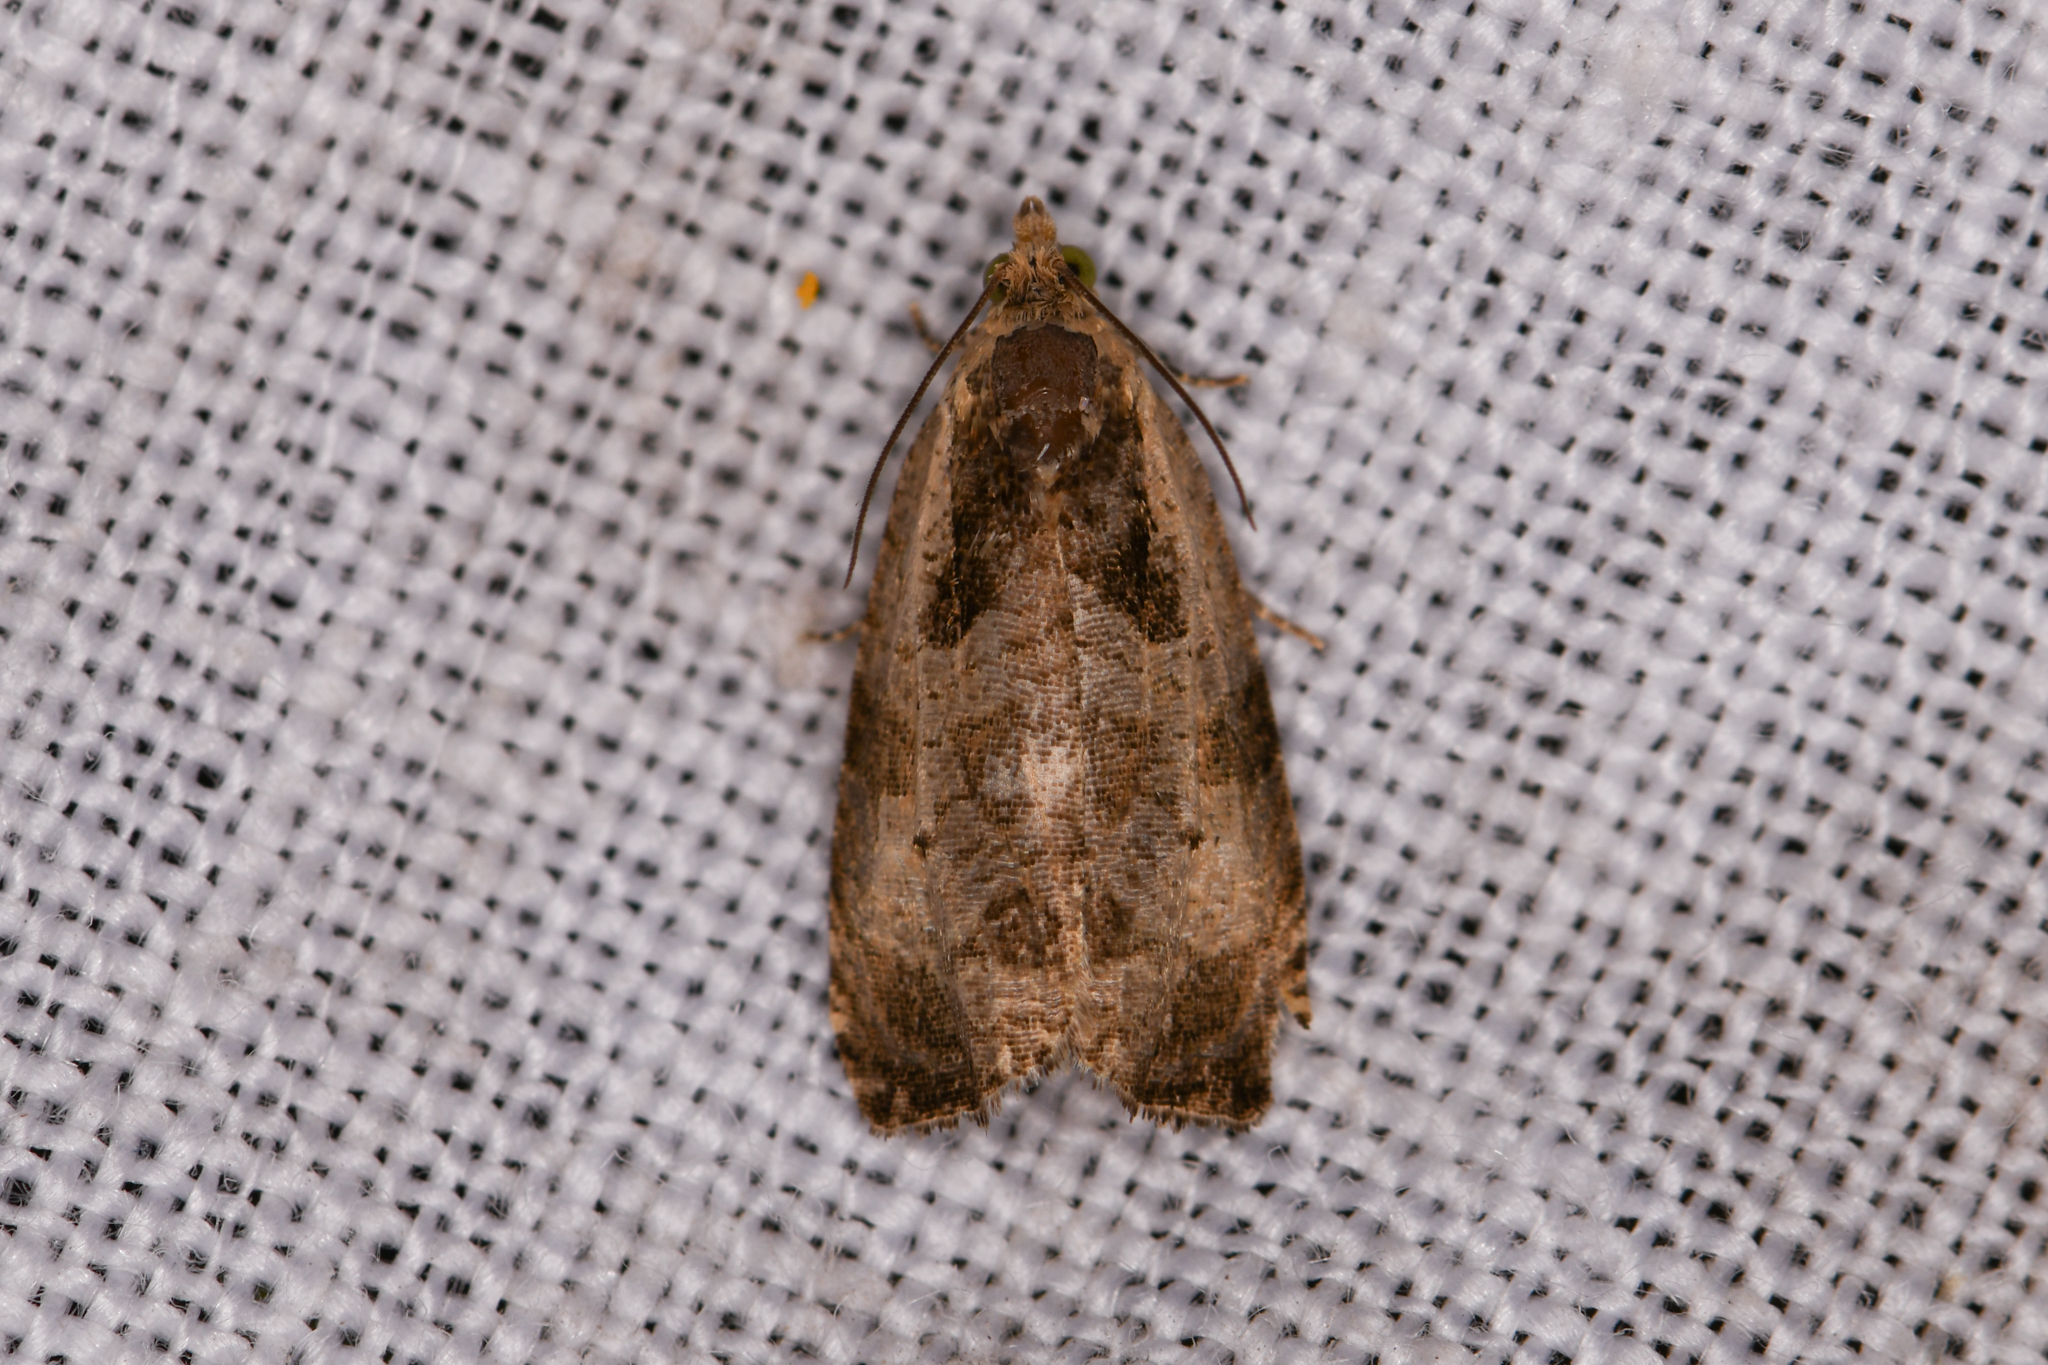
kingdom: Animalia
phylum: Arthropoda
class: Insecta
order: Lepidoptera
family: Tortricidae
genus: Olethreutes
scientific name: Olethreutes punctanum
